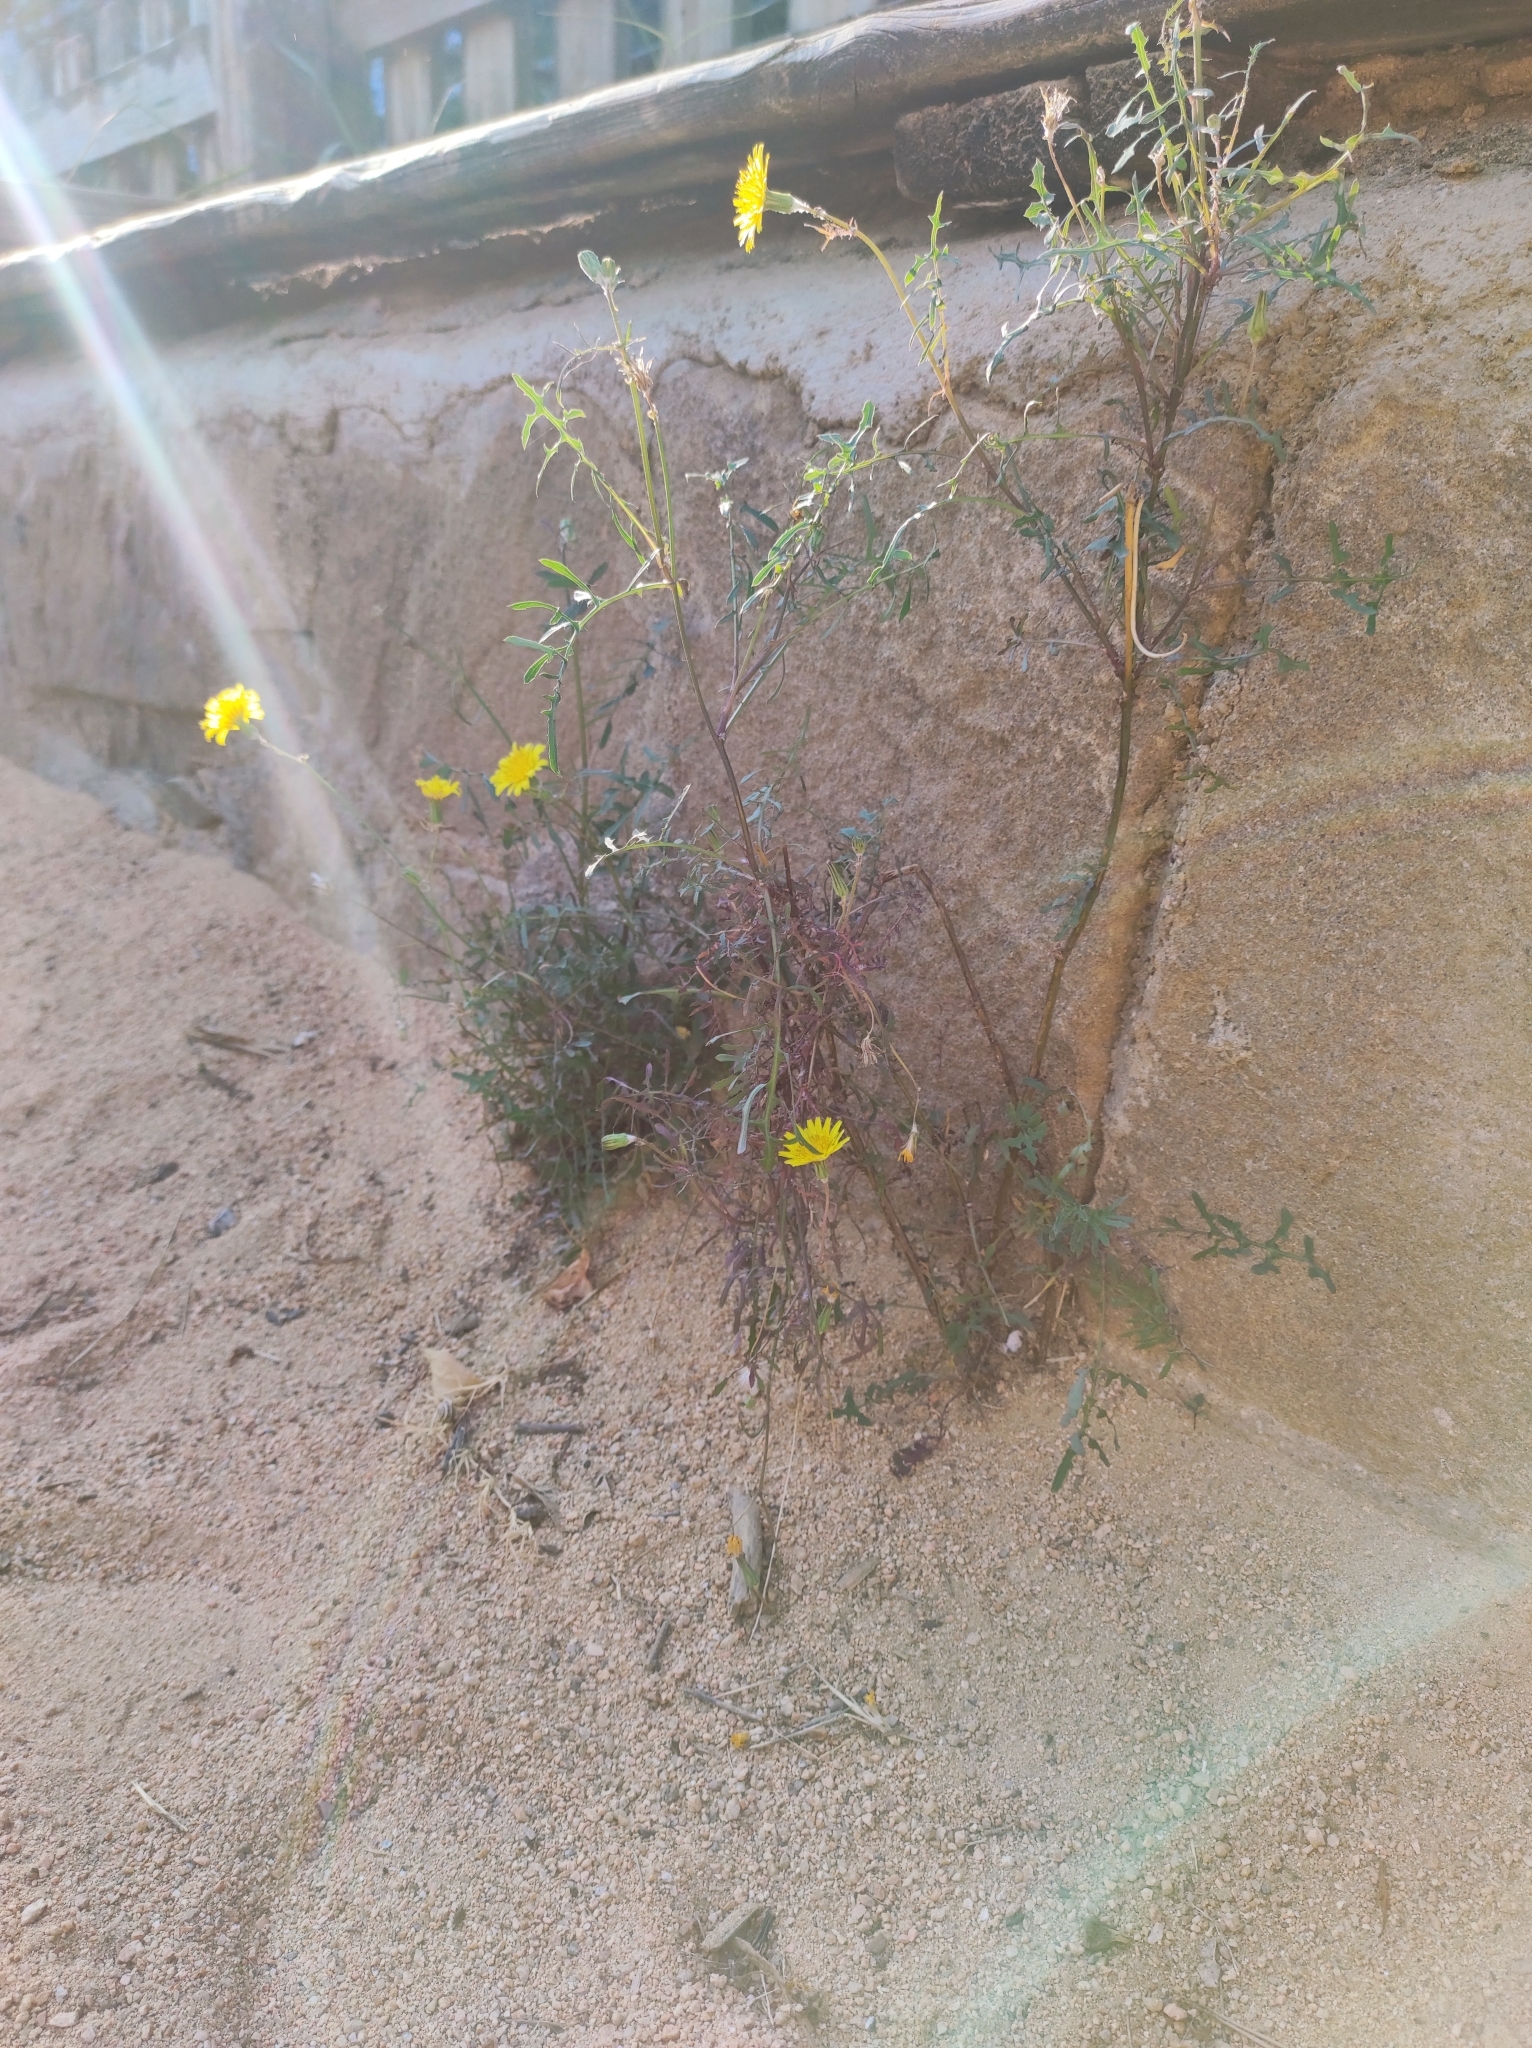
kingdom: Plantae
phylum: Tracheophyta
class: Magnoliopsida
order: Asterales
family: Asteraceae
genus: Sonchus
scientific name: Sonchus tenerrimus
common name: Clammy sowthistle
